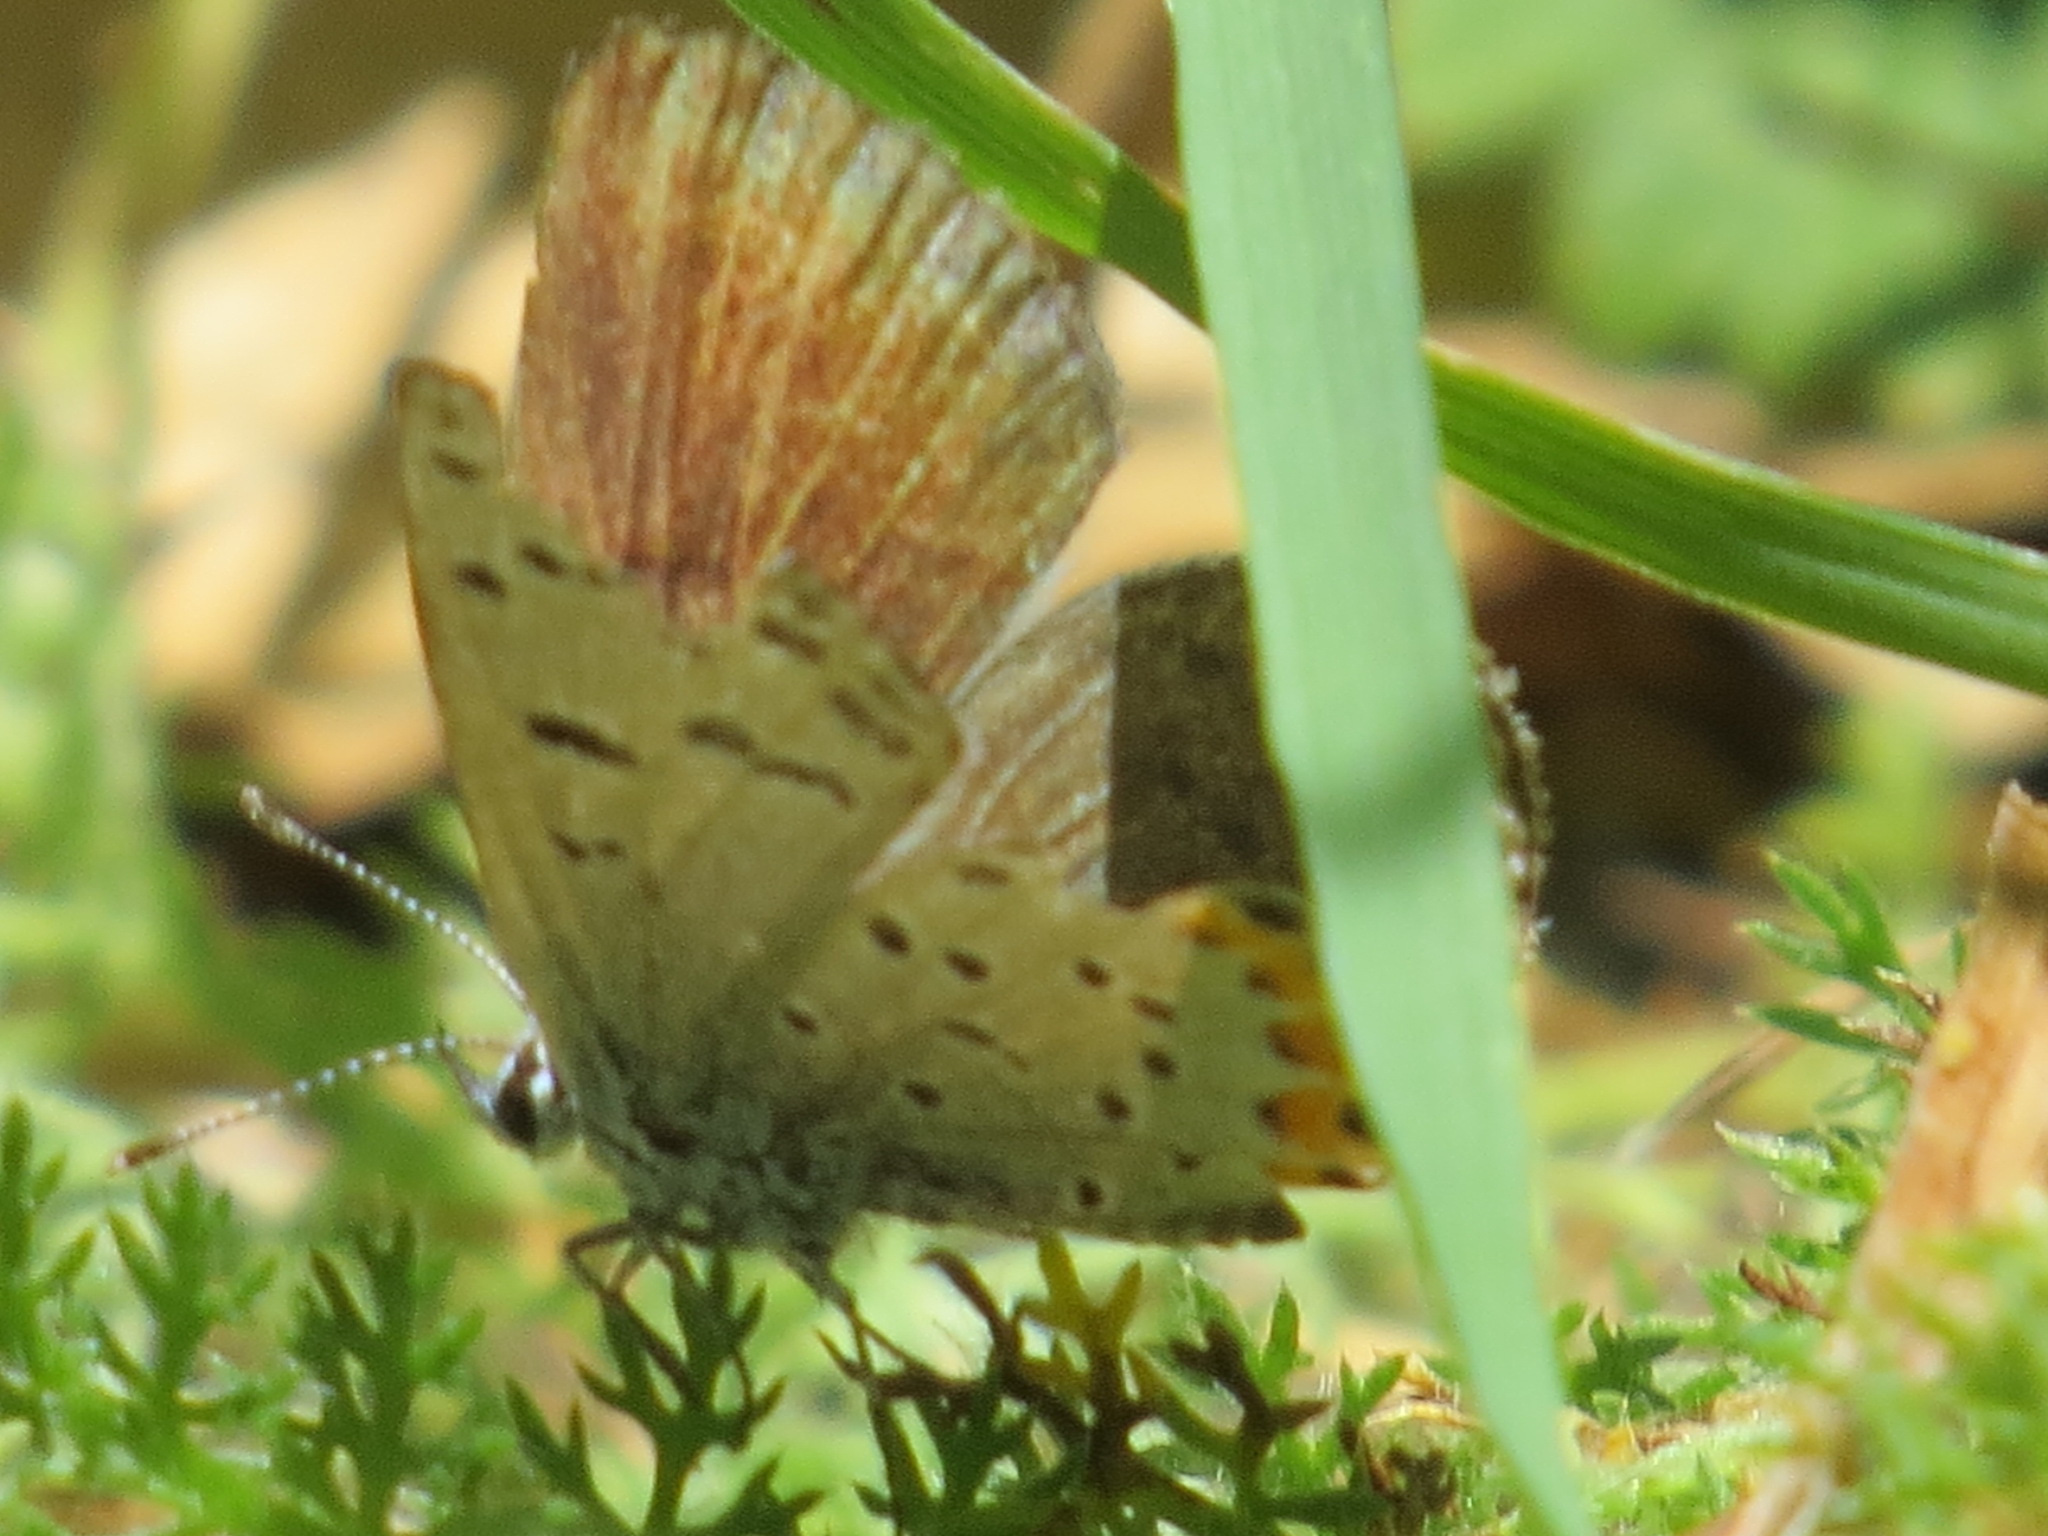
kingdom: Animalia
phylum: Arthropoda
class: Insecta
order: Lepidoptera
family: Lycaenidae
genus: Icaricia
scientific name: Icaricia acmon
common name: Acmon blue
